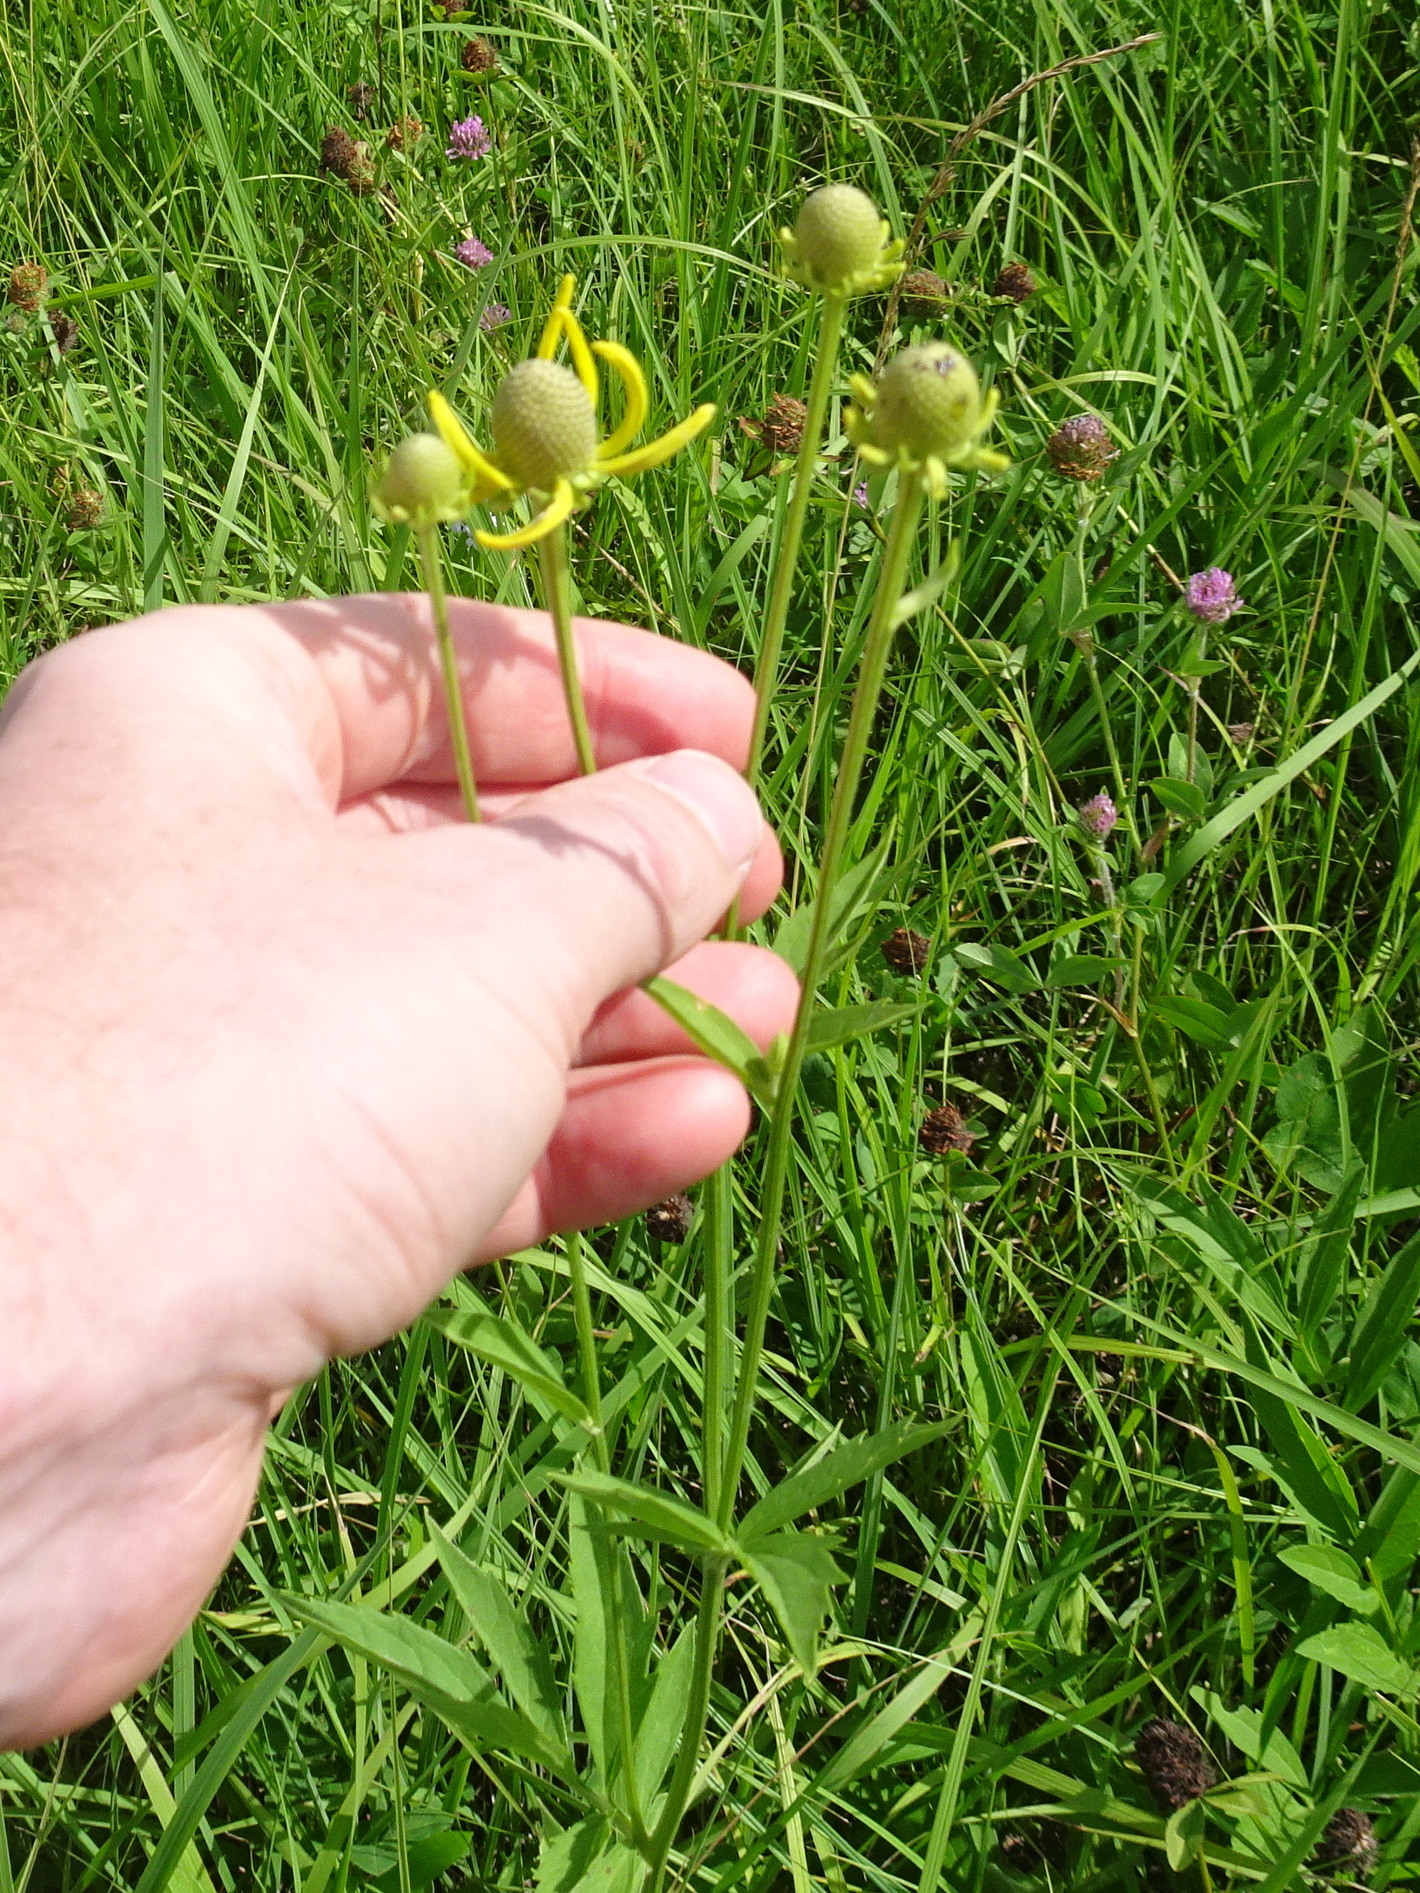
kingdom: Plantae
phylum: Tracheophyta
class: Magnoliopsida
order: Asterales
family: Asteraceae
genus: Ratibida
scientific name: Ratibida pinnata
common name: Drooping prairie-coneflower
